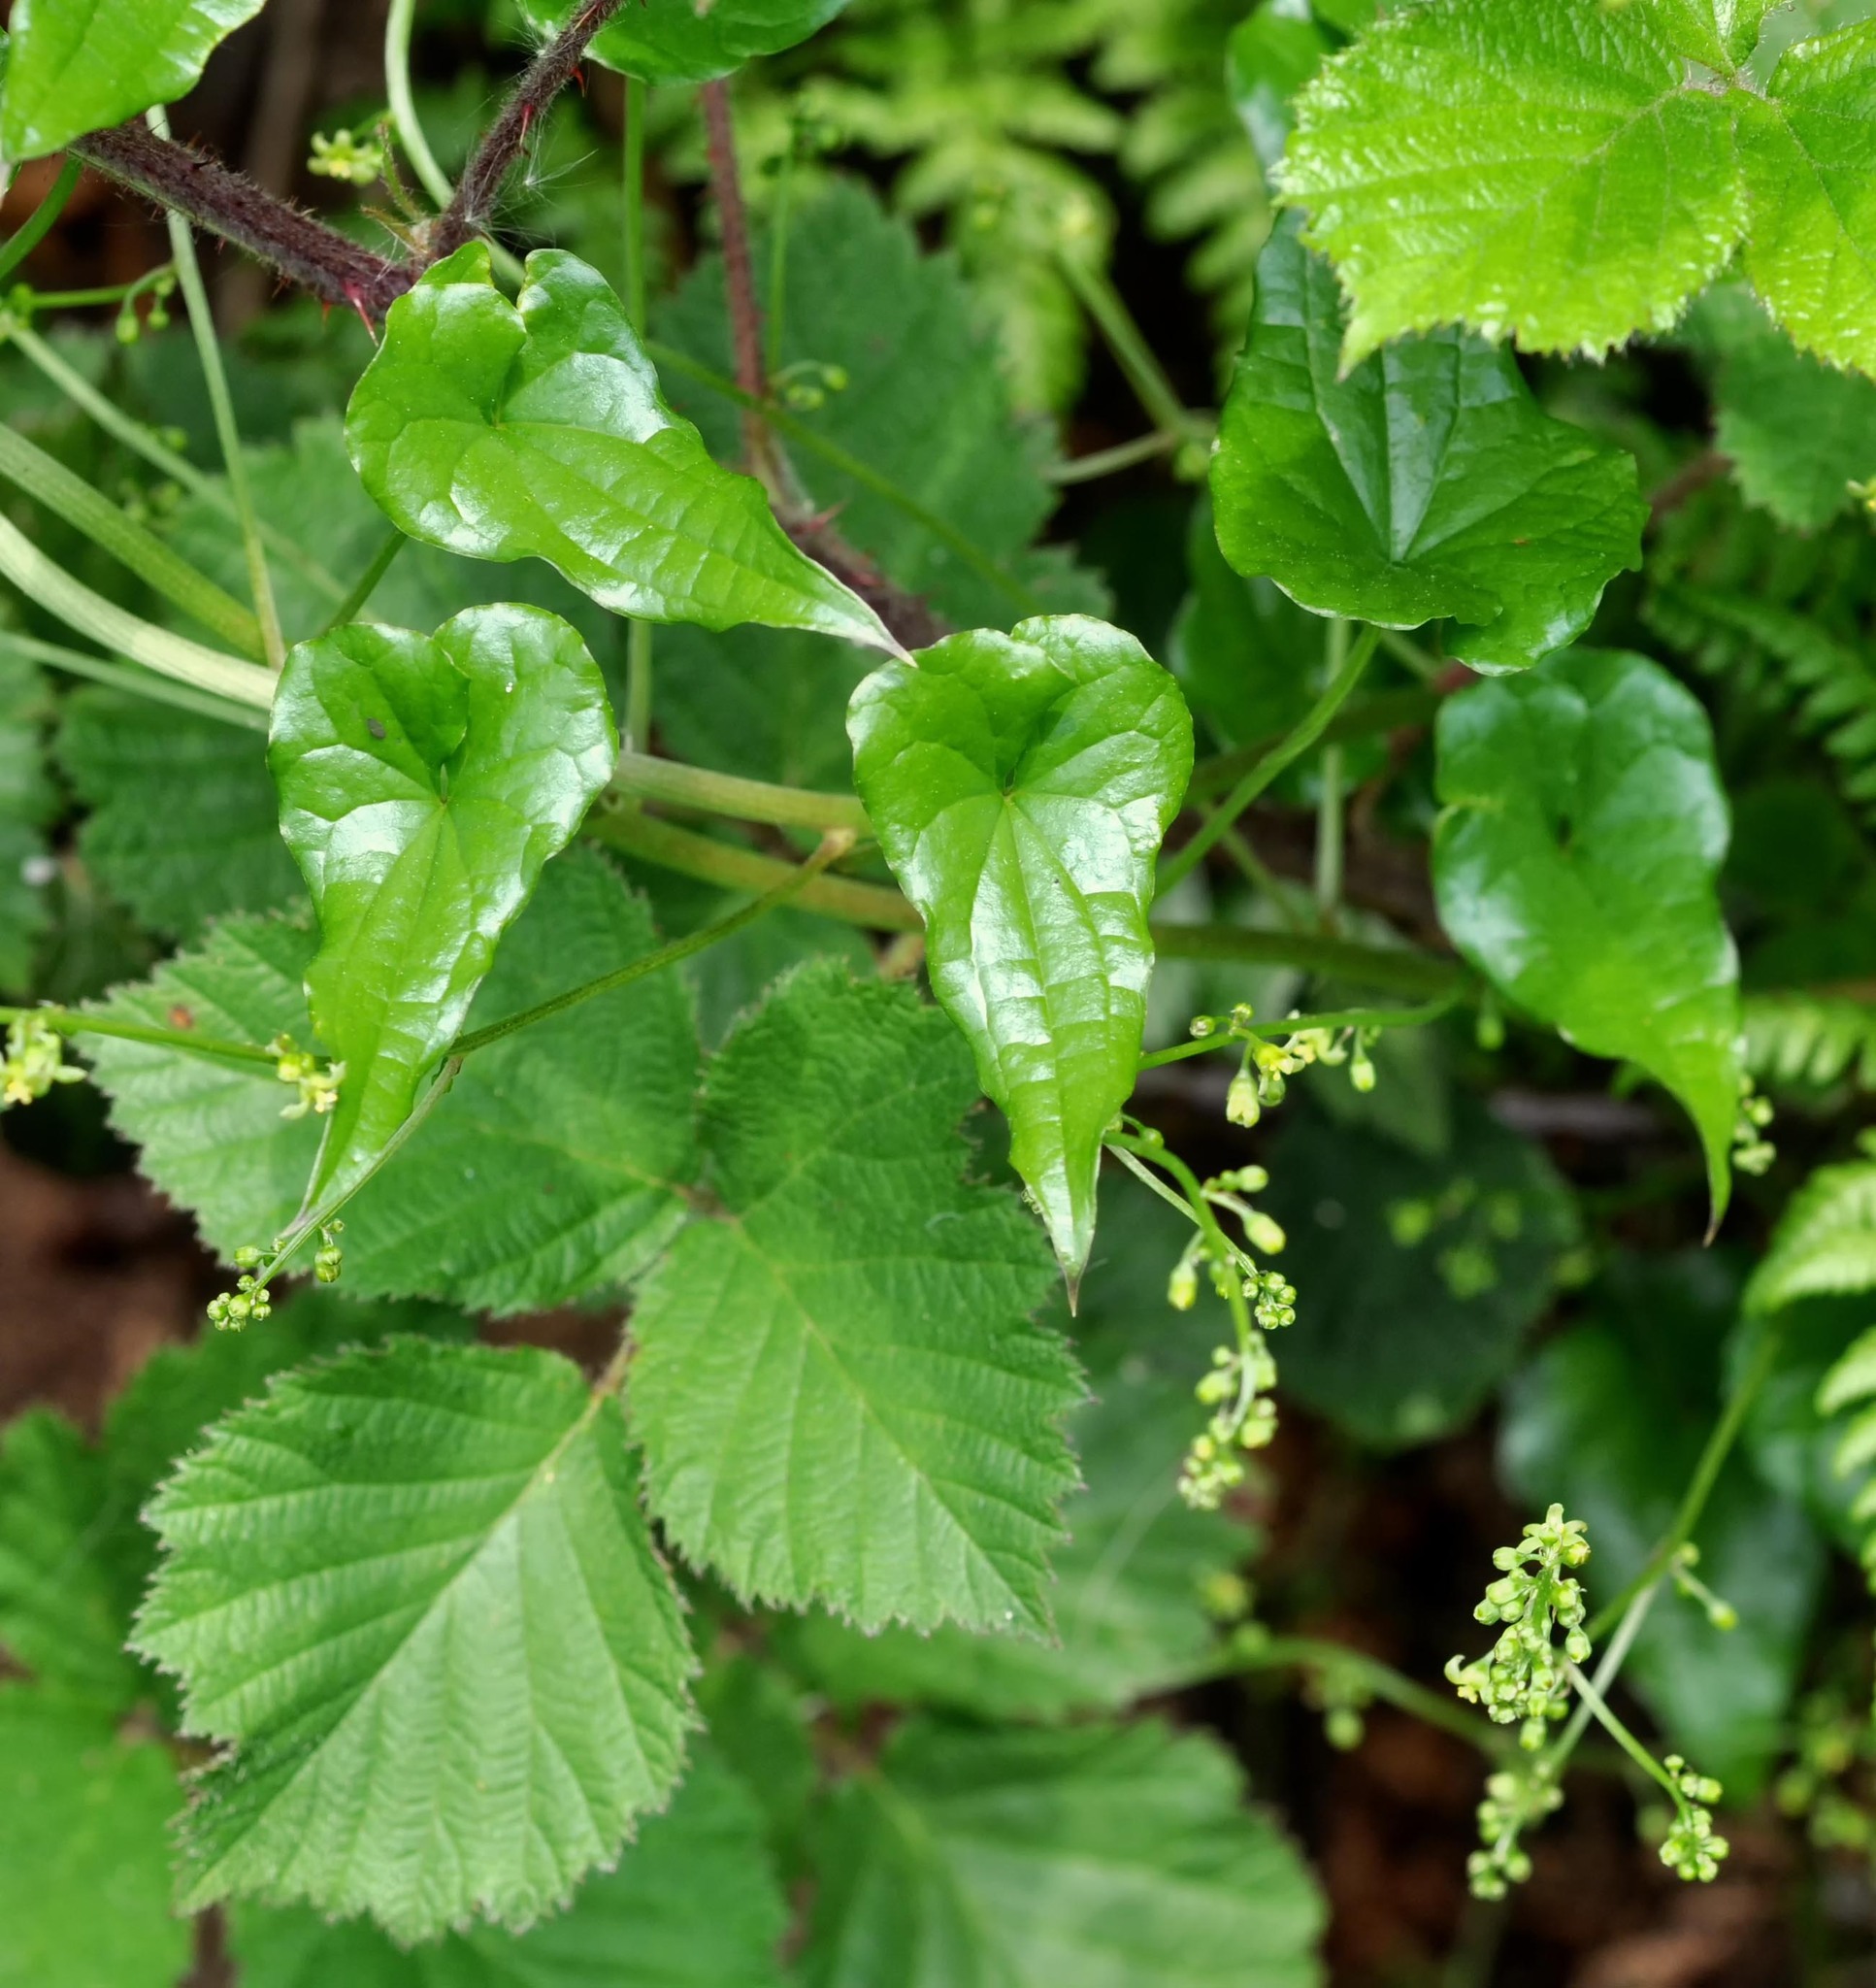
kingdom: Plantae
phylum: Tracheophyta
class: Liliopsida
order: Dioscoreales
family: Dioscoreaceae
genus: Dioscorea
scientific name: Dioscorea communis
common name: Black-bindweed
